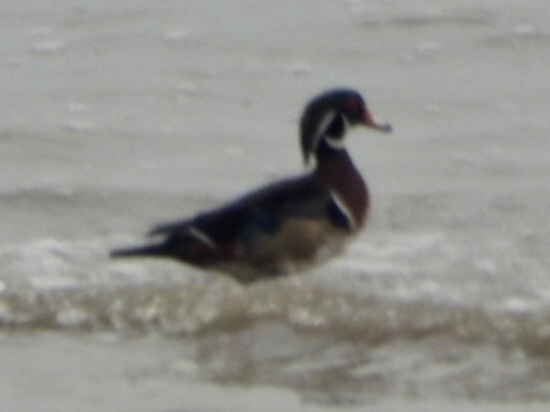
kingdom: Animalia
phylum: Chordata
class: Aves
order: Anseriformes
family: Anatidae
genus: Aix
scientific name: Aix sponsa
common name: Wood duck
